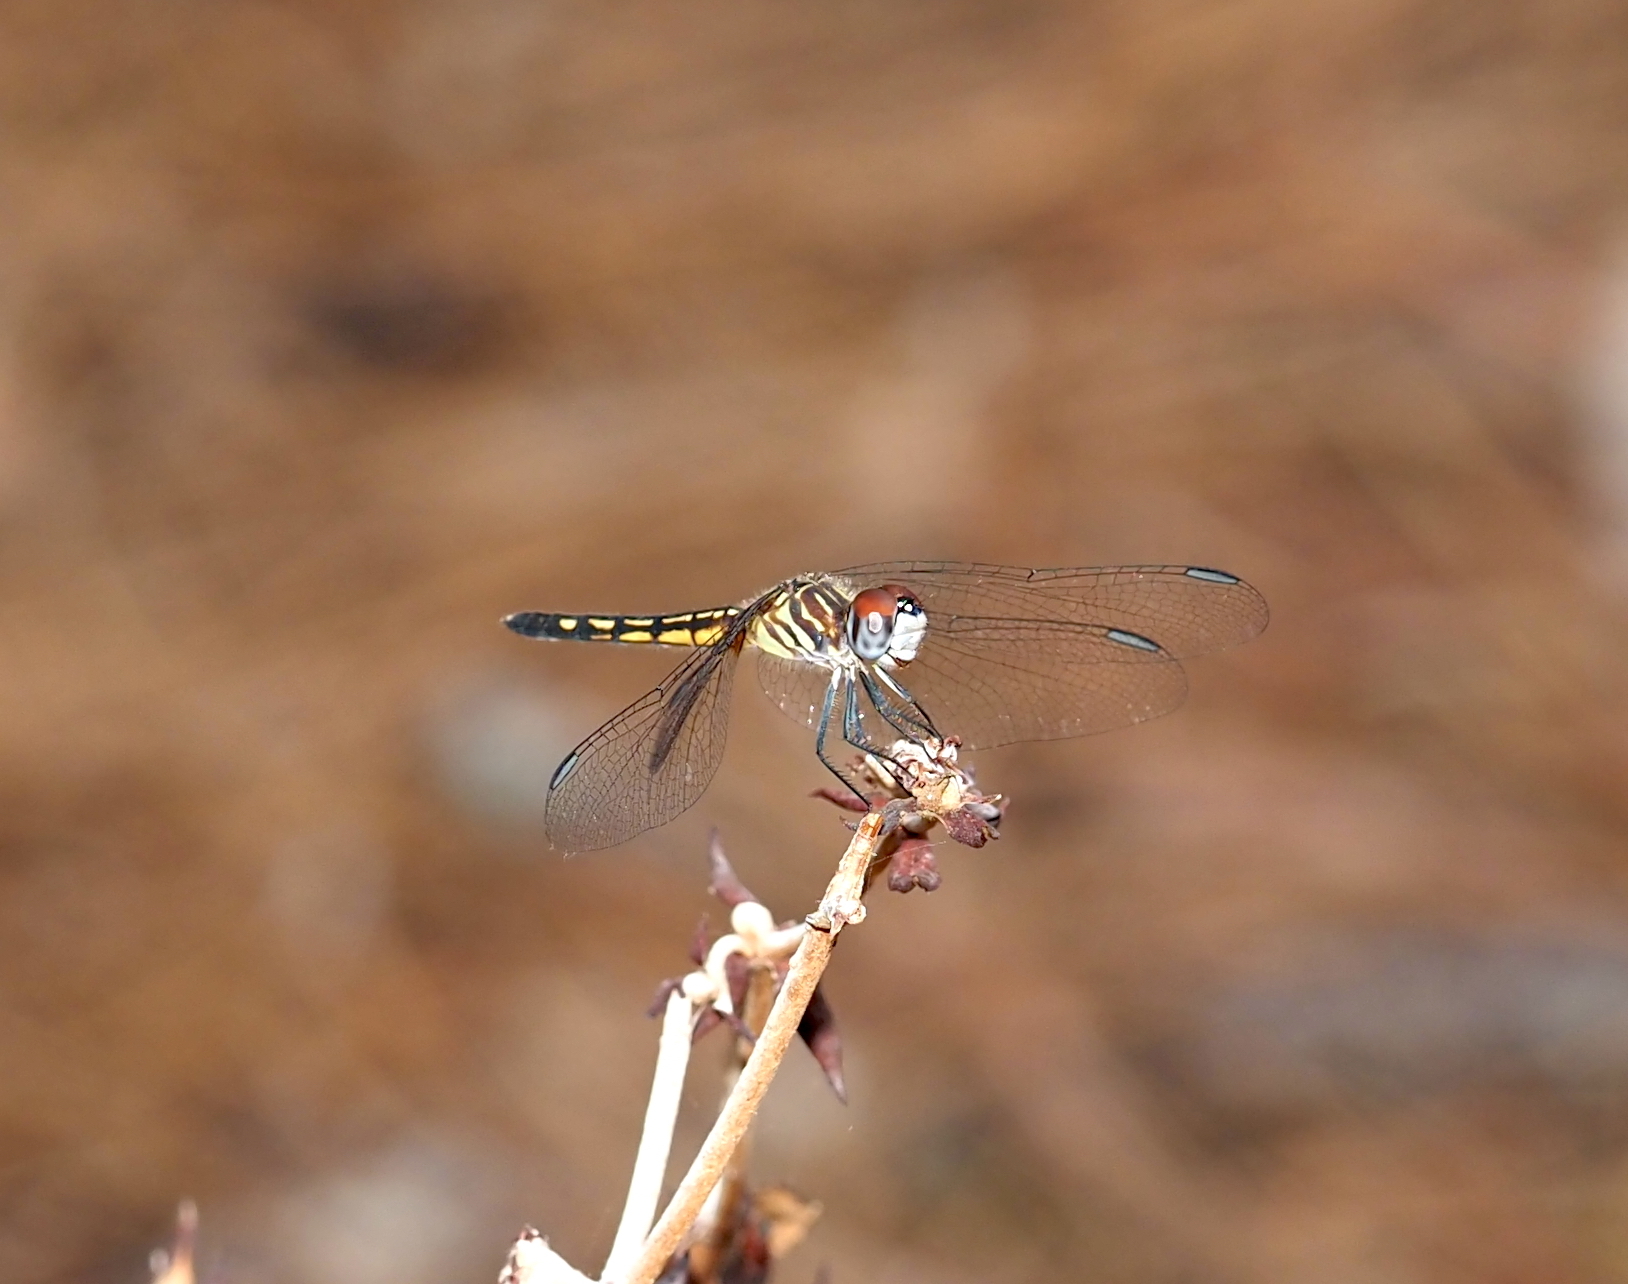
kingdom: Animalia
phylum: Arthropoda
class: Insecta
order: Odonata
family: Libellulidae
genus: Pachydiplax
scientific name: Pachydiplax longipennis
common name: Blue dasher
